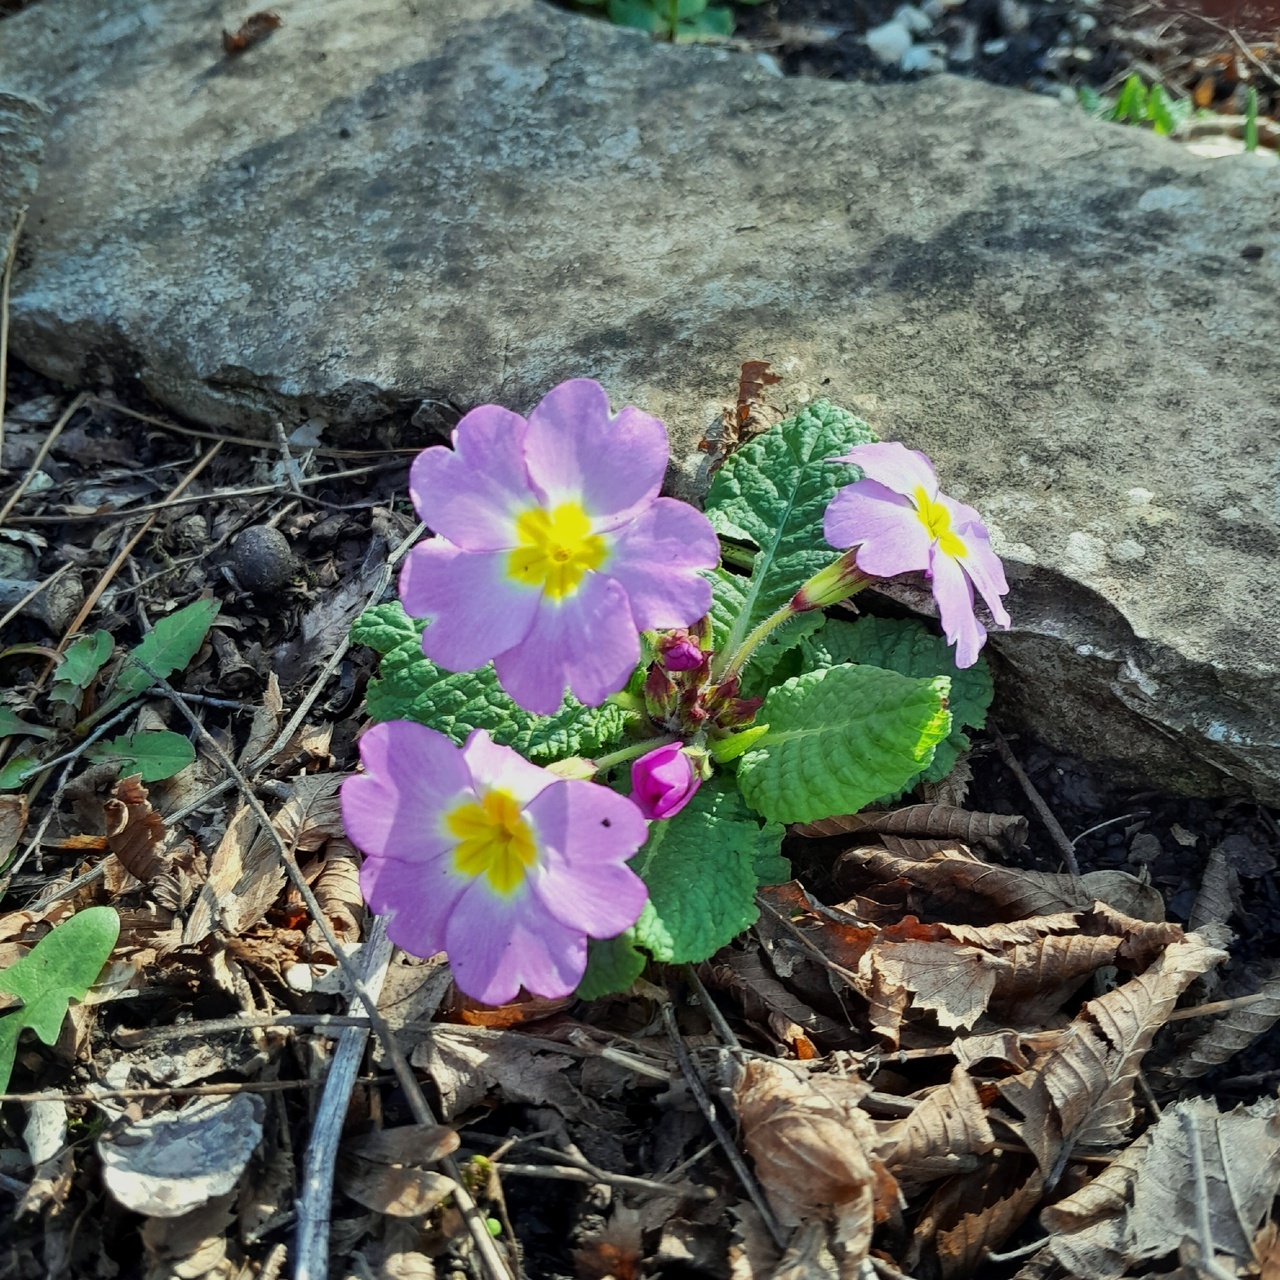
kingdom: Plantae
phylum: Tracheophyta
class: Magnoliopsida
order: Ericales
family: Primulaceae
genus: Primula
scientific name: Primula vulgaris
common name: Primrose
